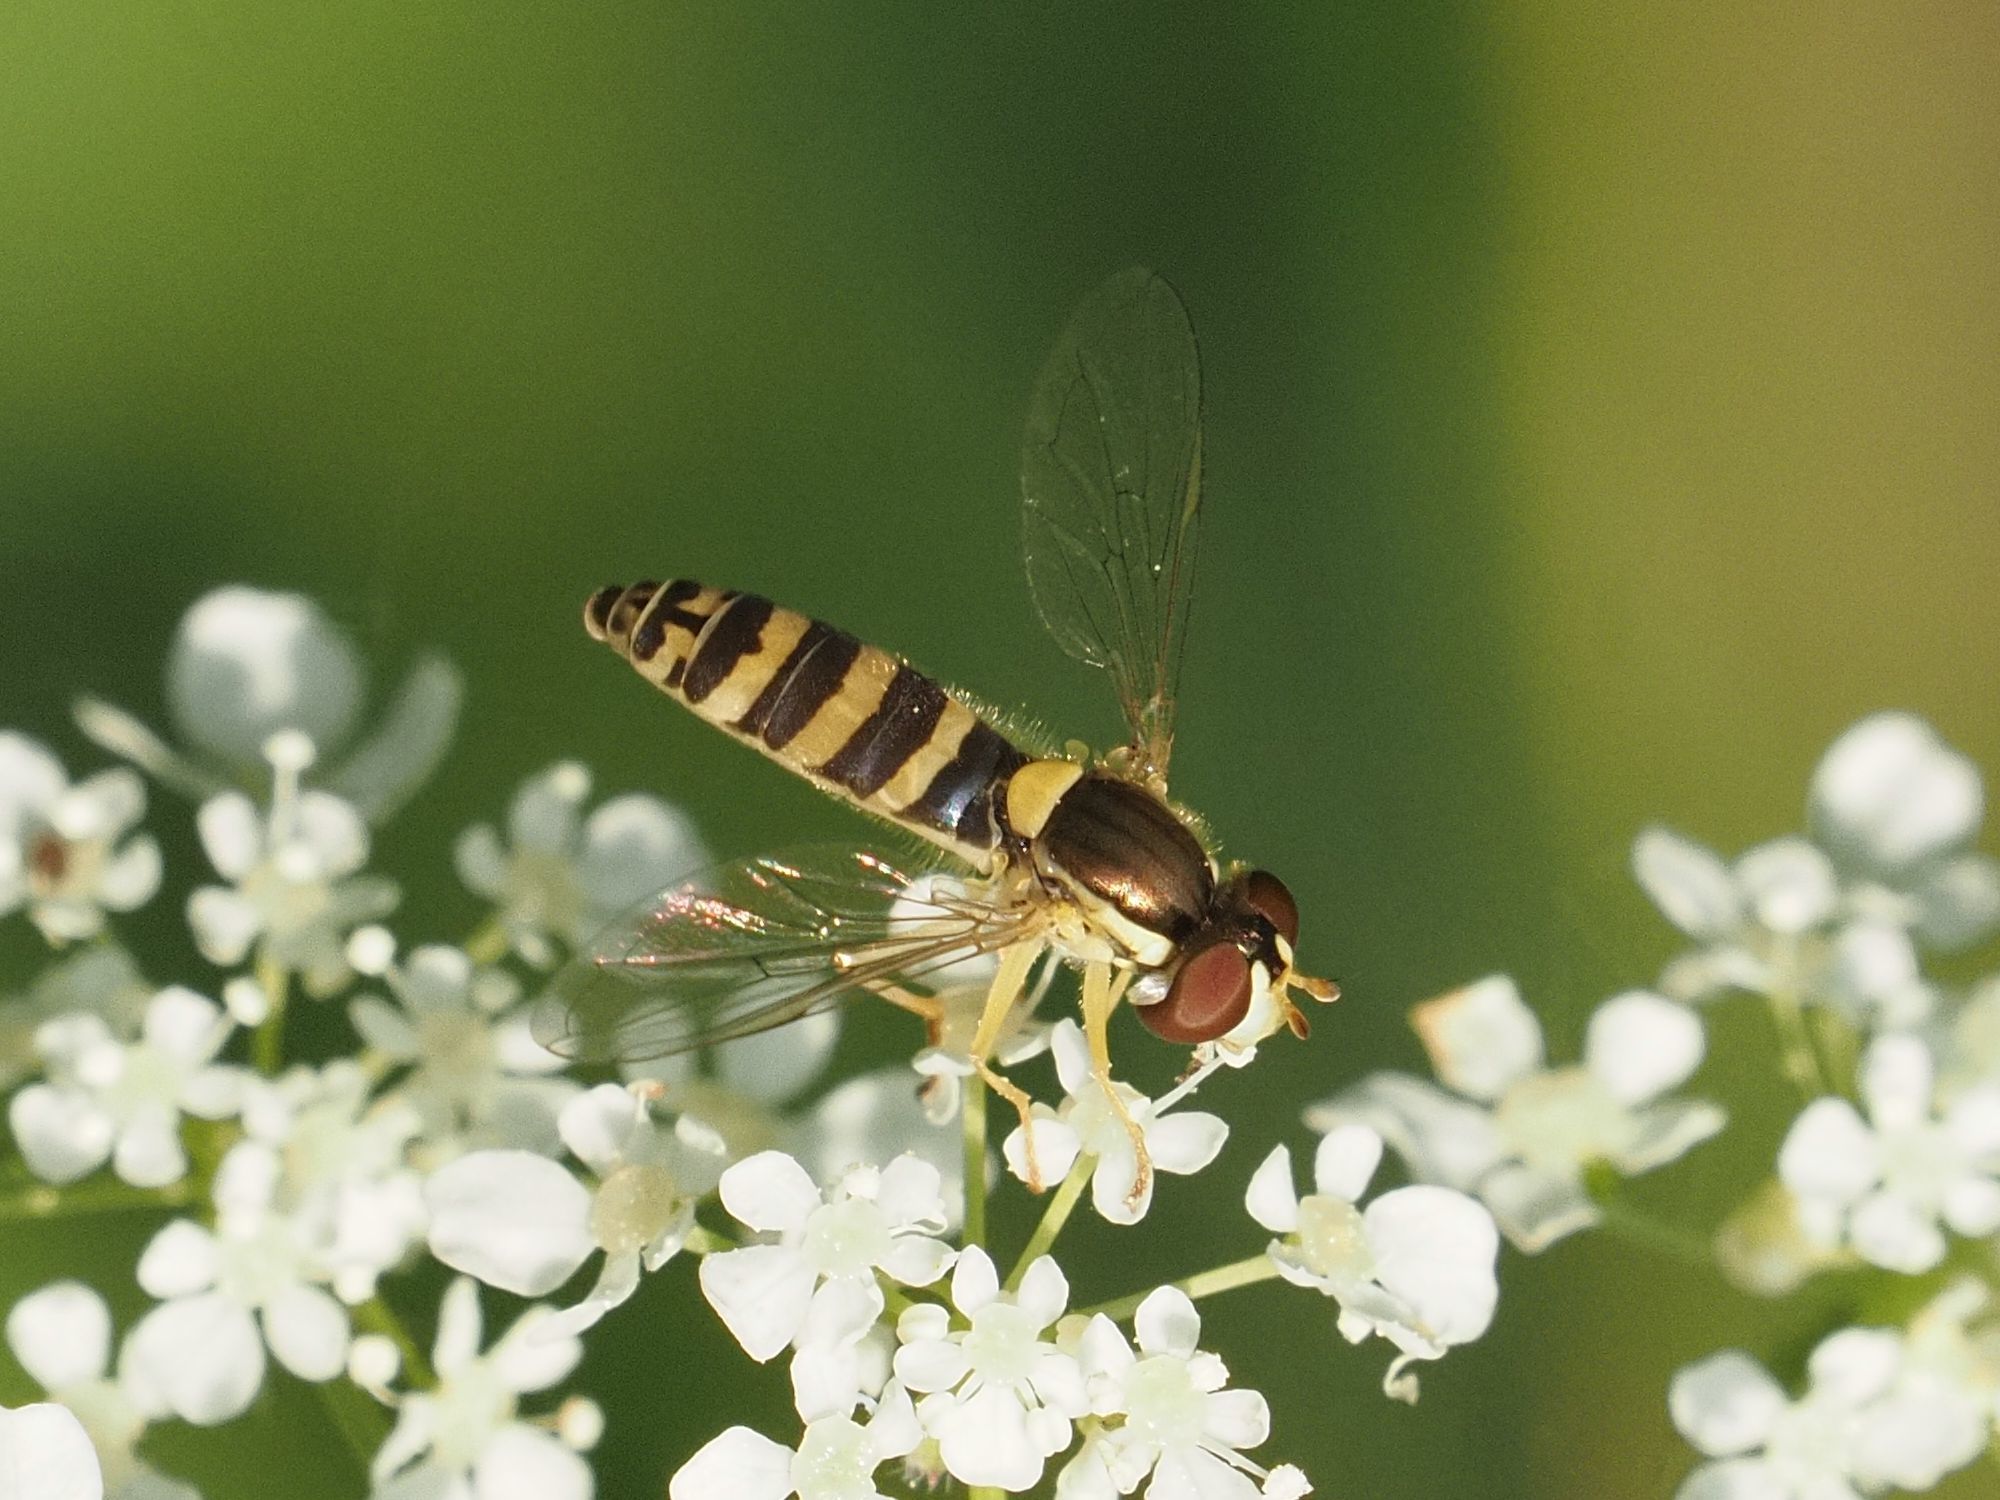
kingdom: Animalia
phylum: Arthropoda
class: Insecta
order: Diptera
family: Syrphidae
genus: Sphaerophoria
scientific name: Sphaerophoria
